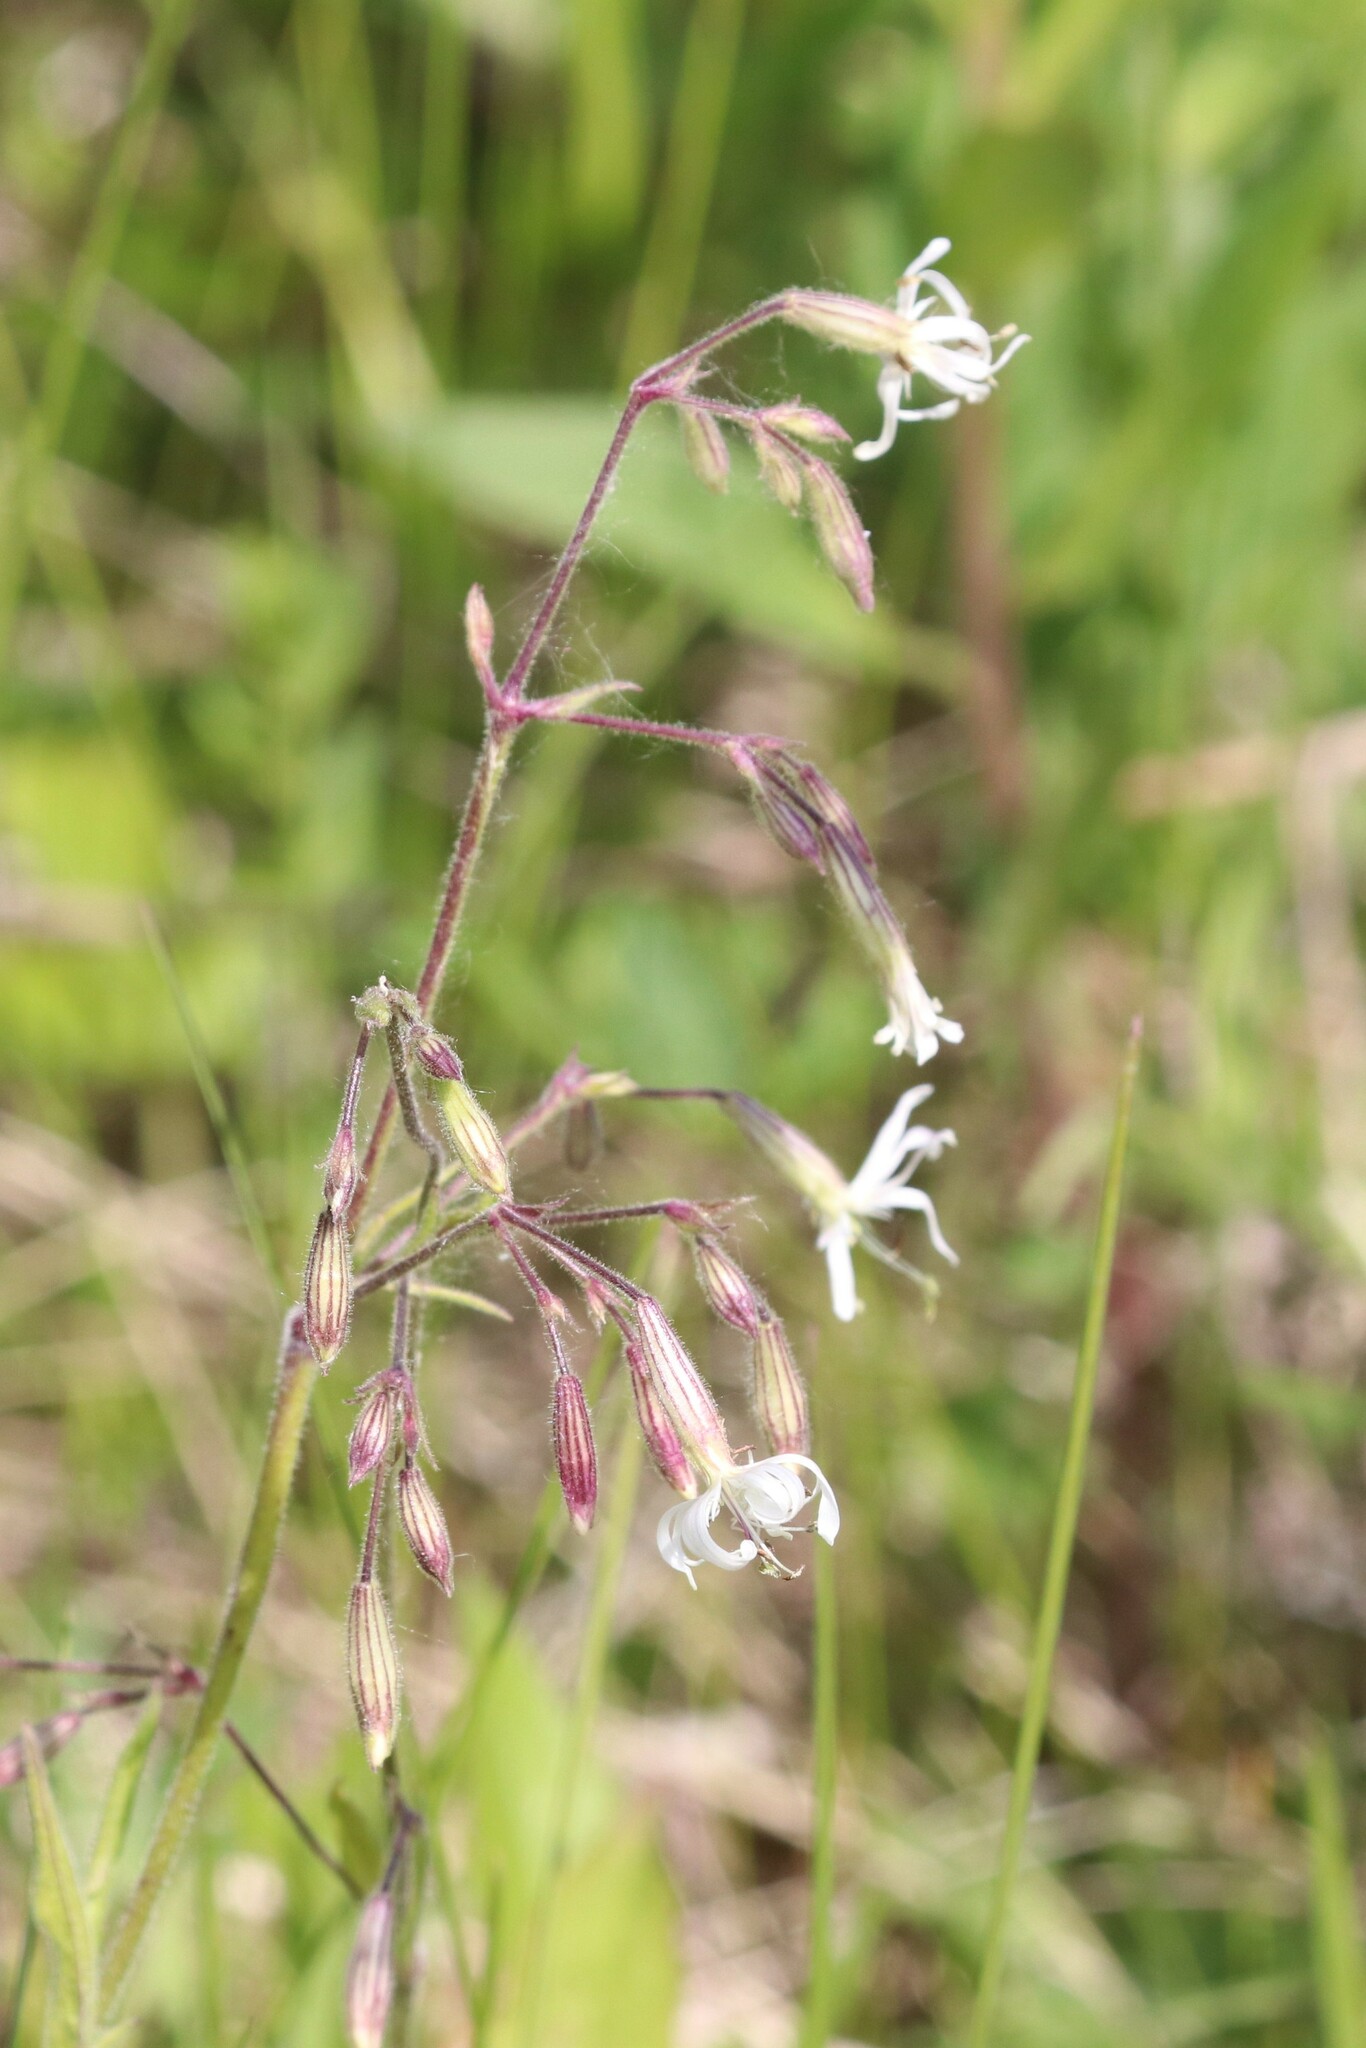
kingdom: Plantae
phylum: Tracheophyta
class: Magnoliopsida
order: Caryophyllales
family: Caryophyllaceae
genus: Silene
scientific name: Silene nutans
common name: Nottingham catchfly
